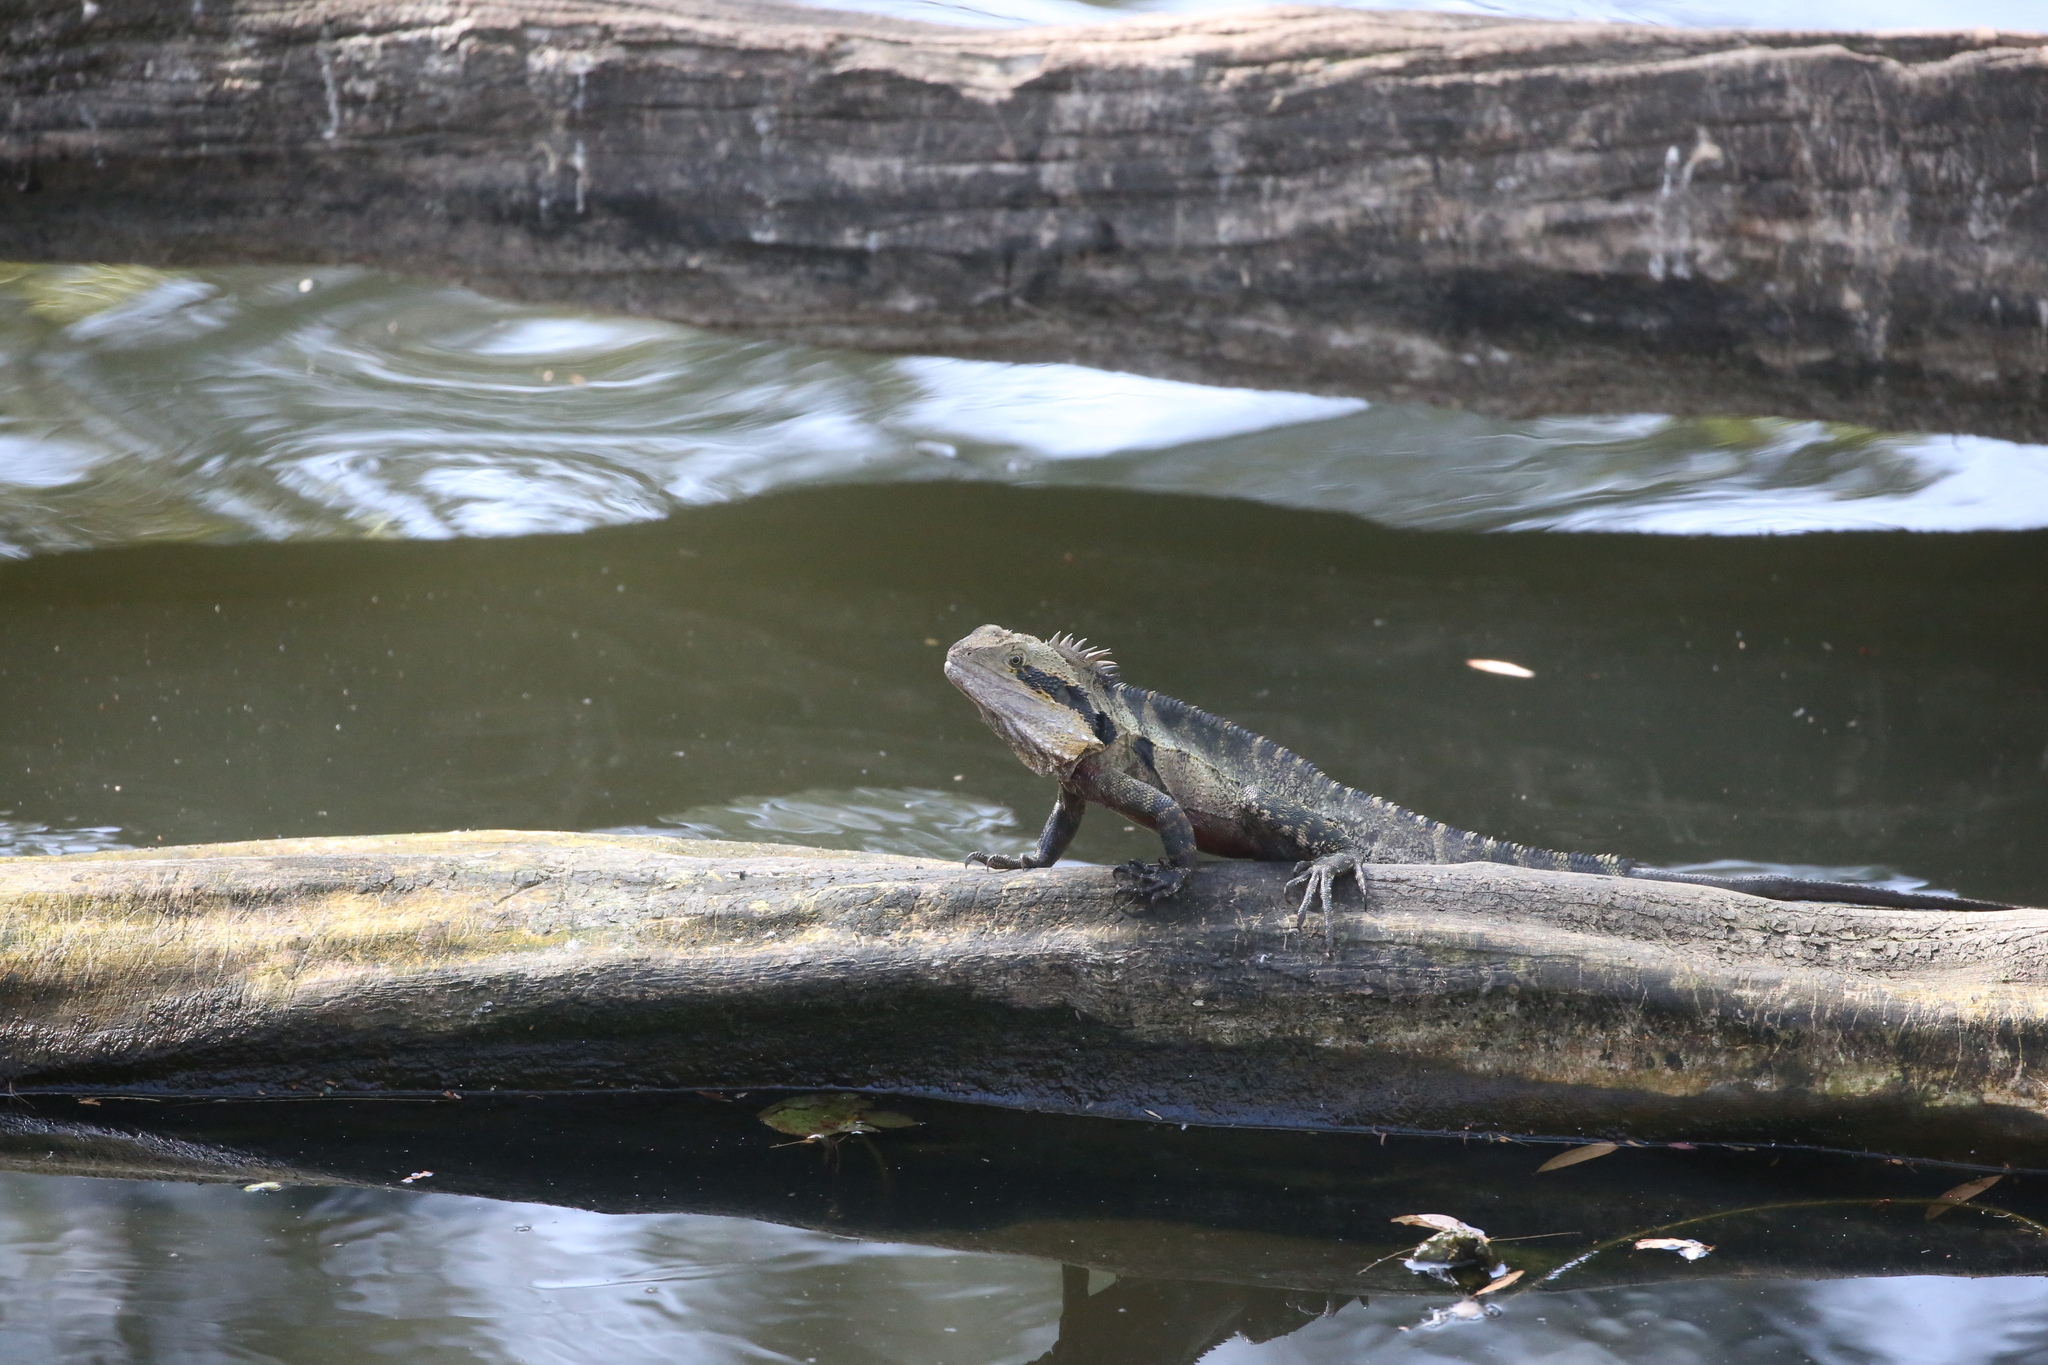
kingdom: Animalia
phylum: Chordata
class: Squamata
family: Agamidae
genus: Intellagama
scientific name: Intellagama lesueurii
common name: Eastern water dragon
